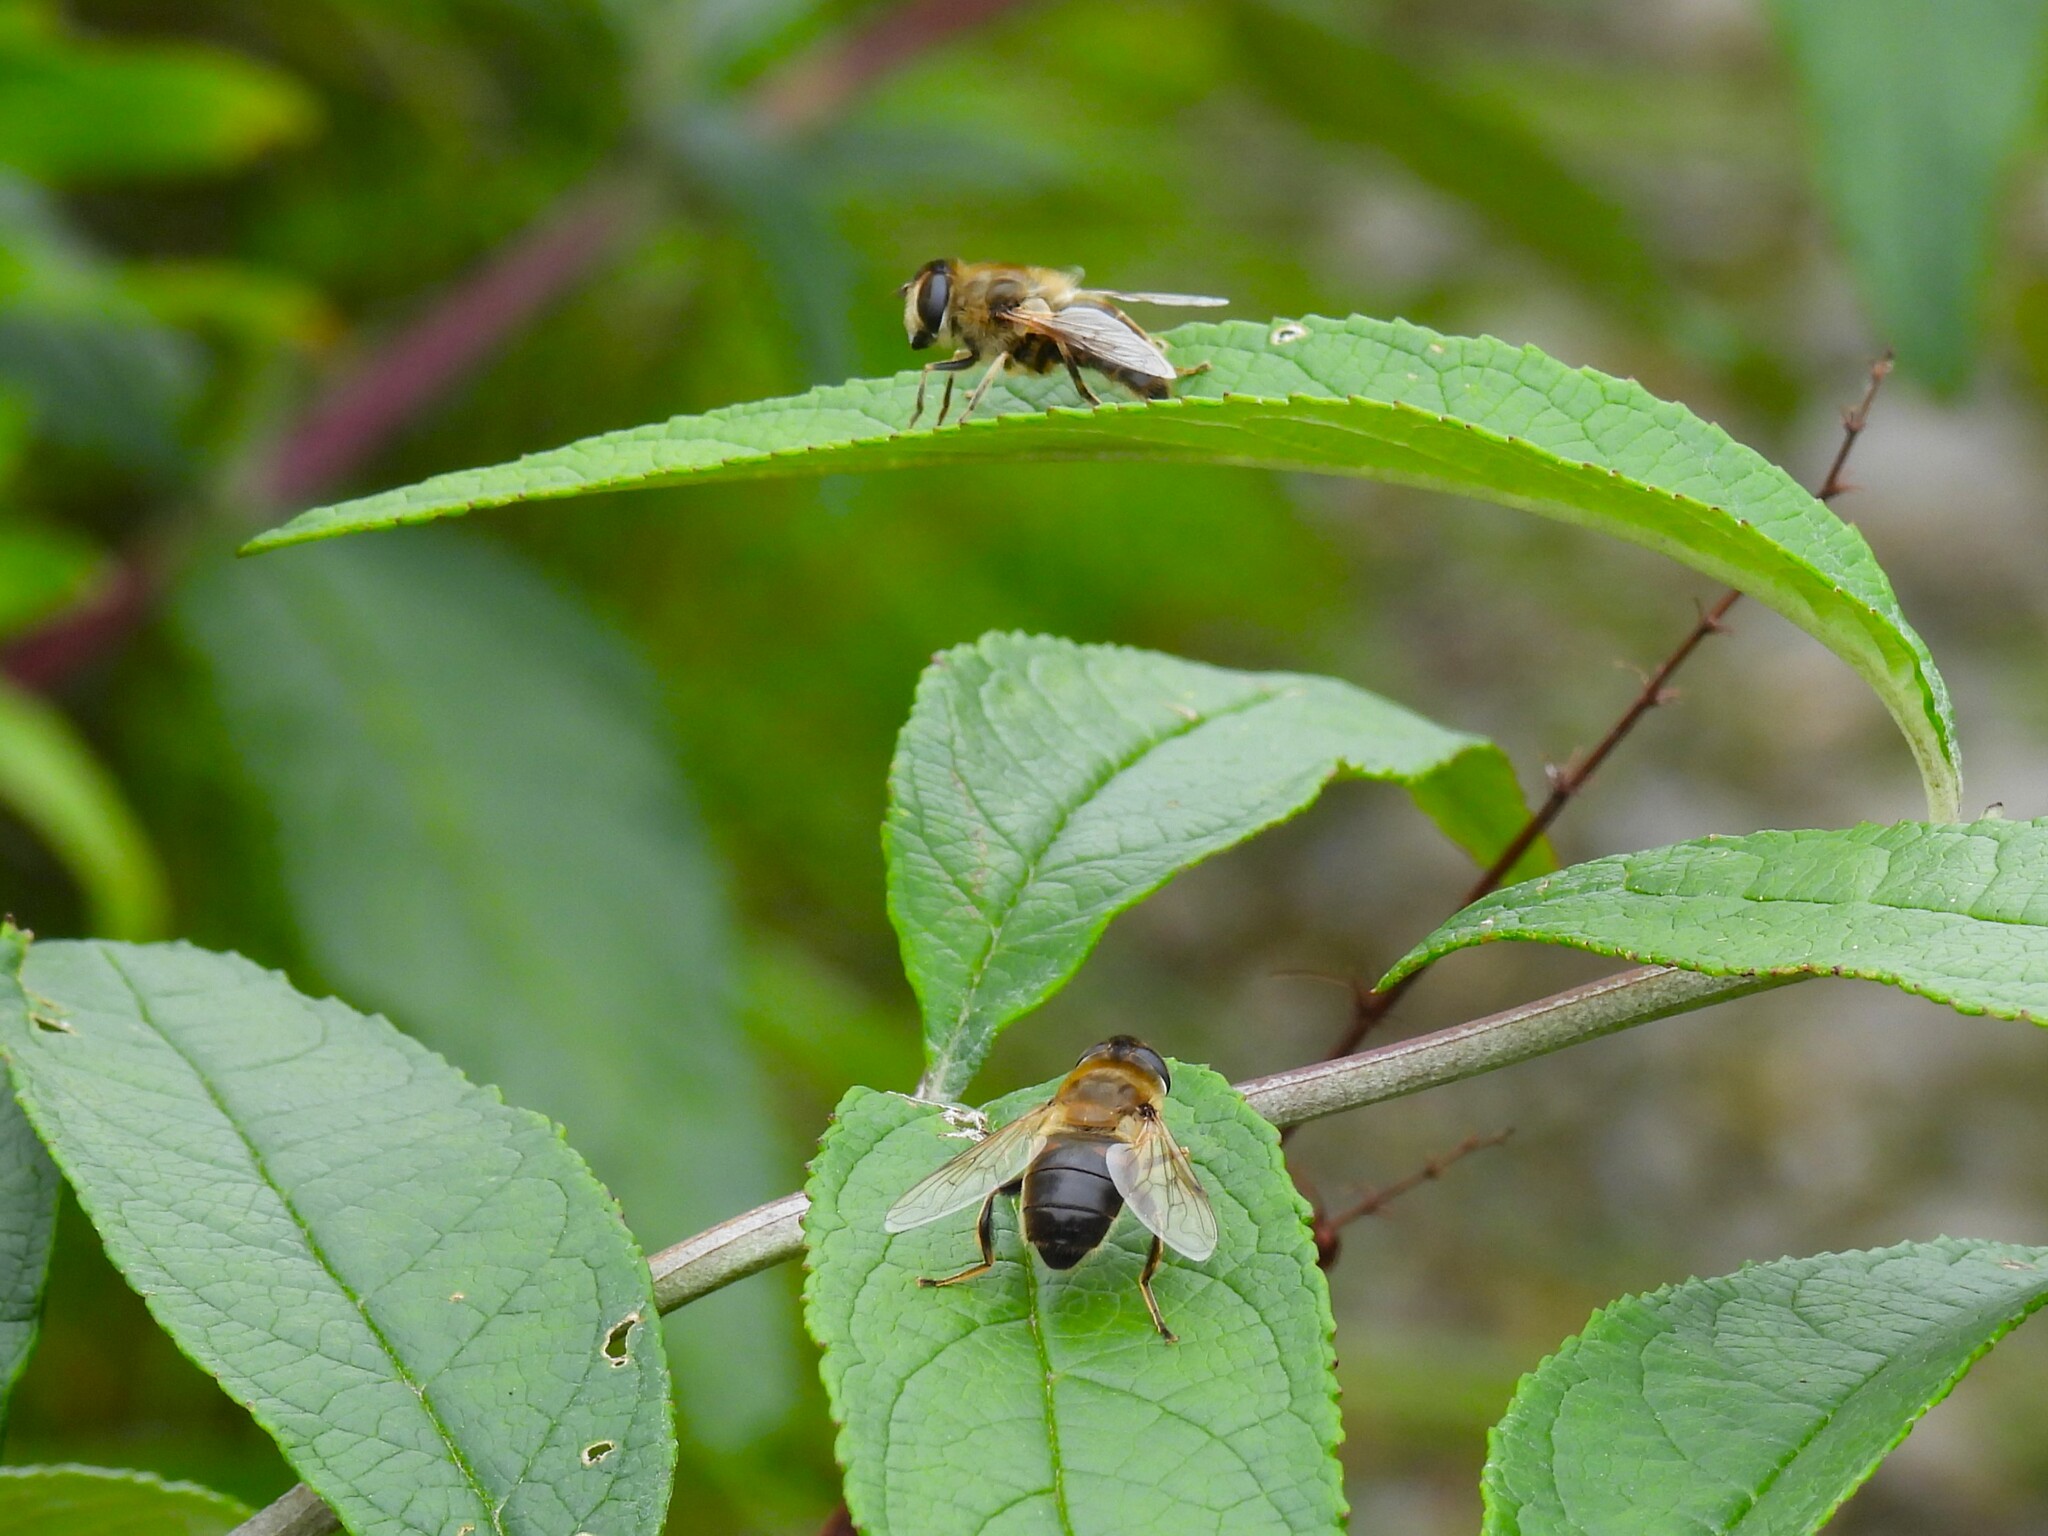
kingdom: Animalia
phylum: Arthropoda
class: Insecta
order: Diptera
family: Syrphidae
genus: Eristalis
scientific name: Eristalis tenax
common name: Drone fly
